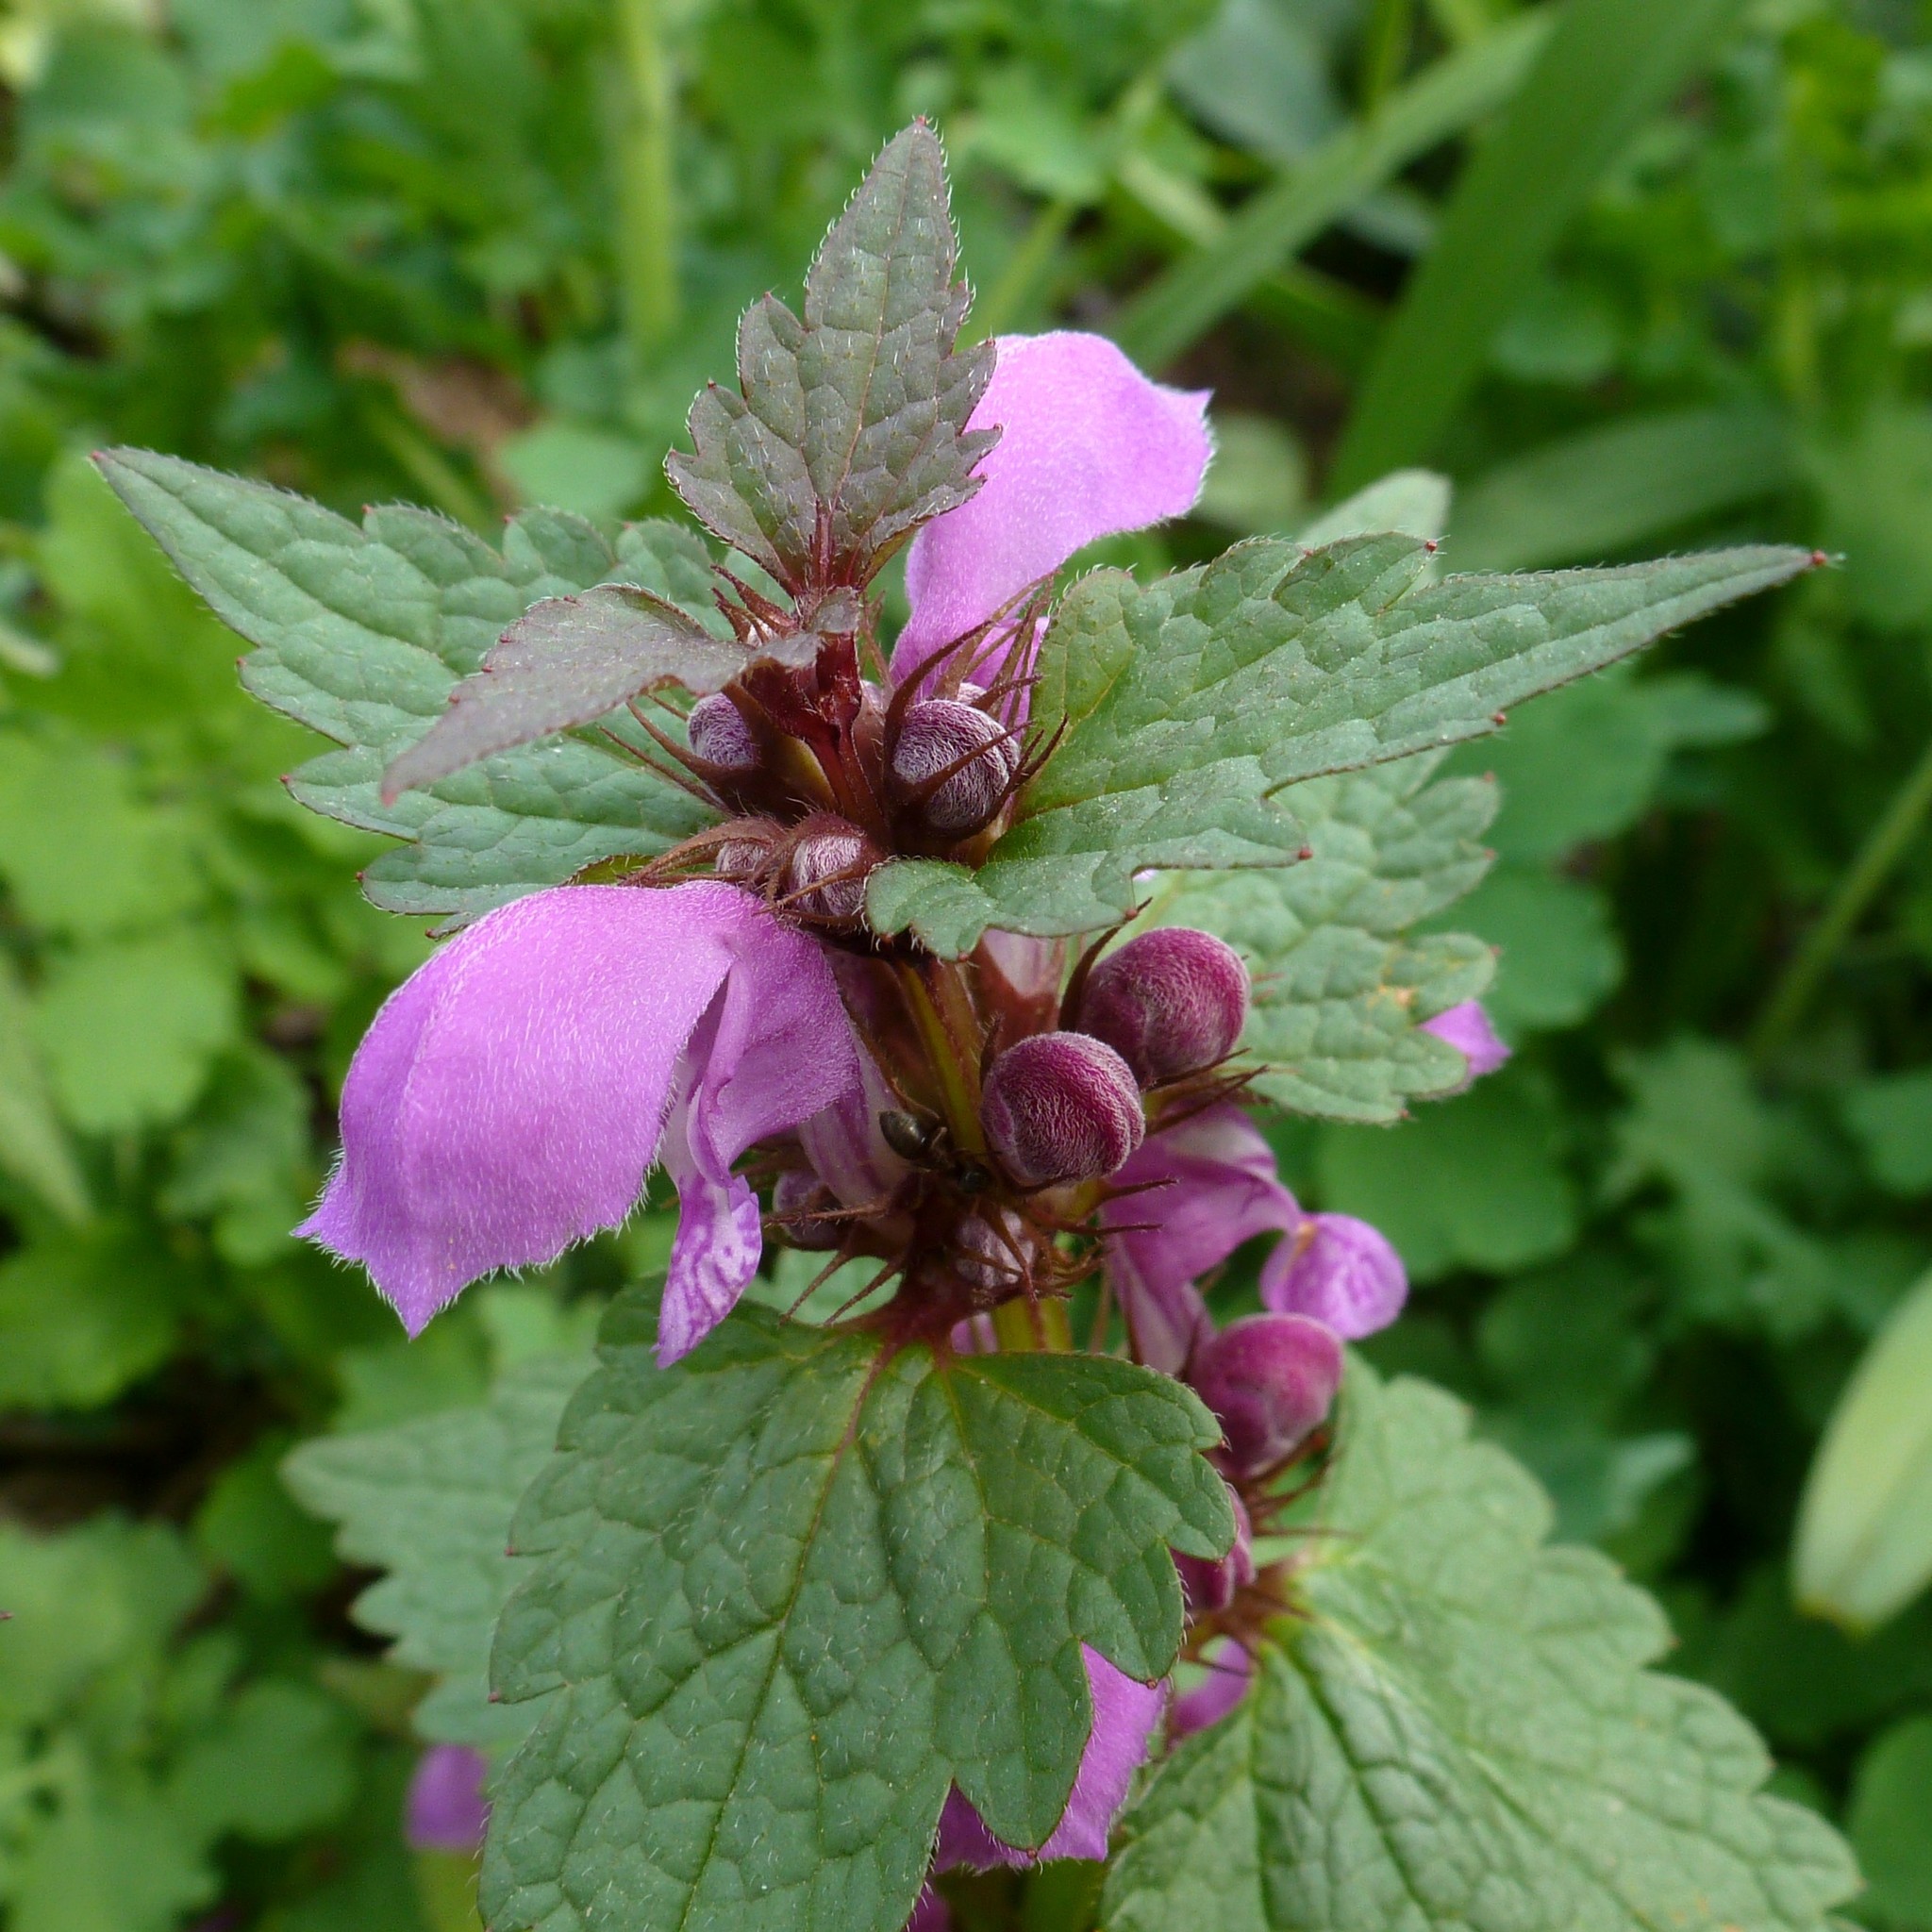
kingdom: Plantae
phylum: Tracheophyta
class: Magnoliopsida
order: Lamiales
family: Lamiaceae
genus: Lamium
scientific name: Lamium maculatum
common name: Spotted dead-nettle
